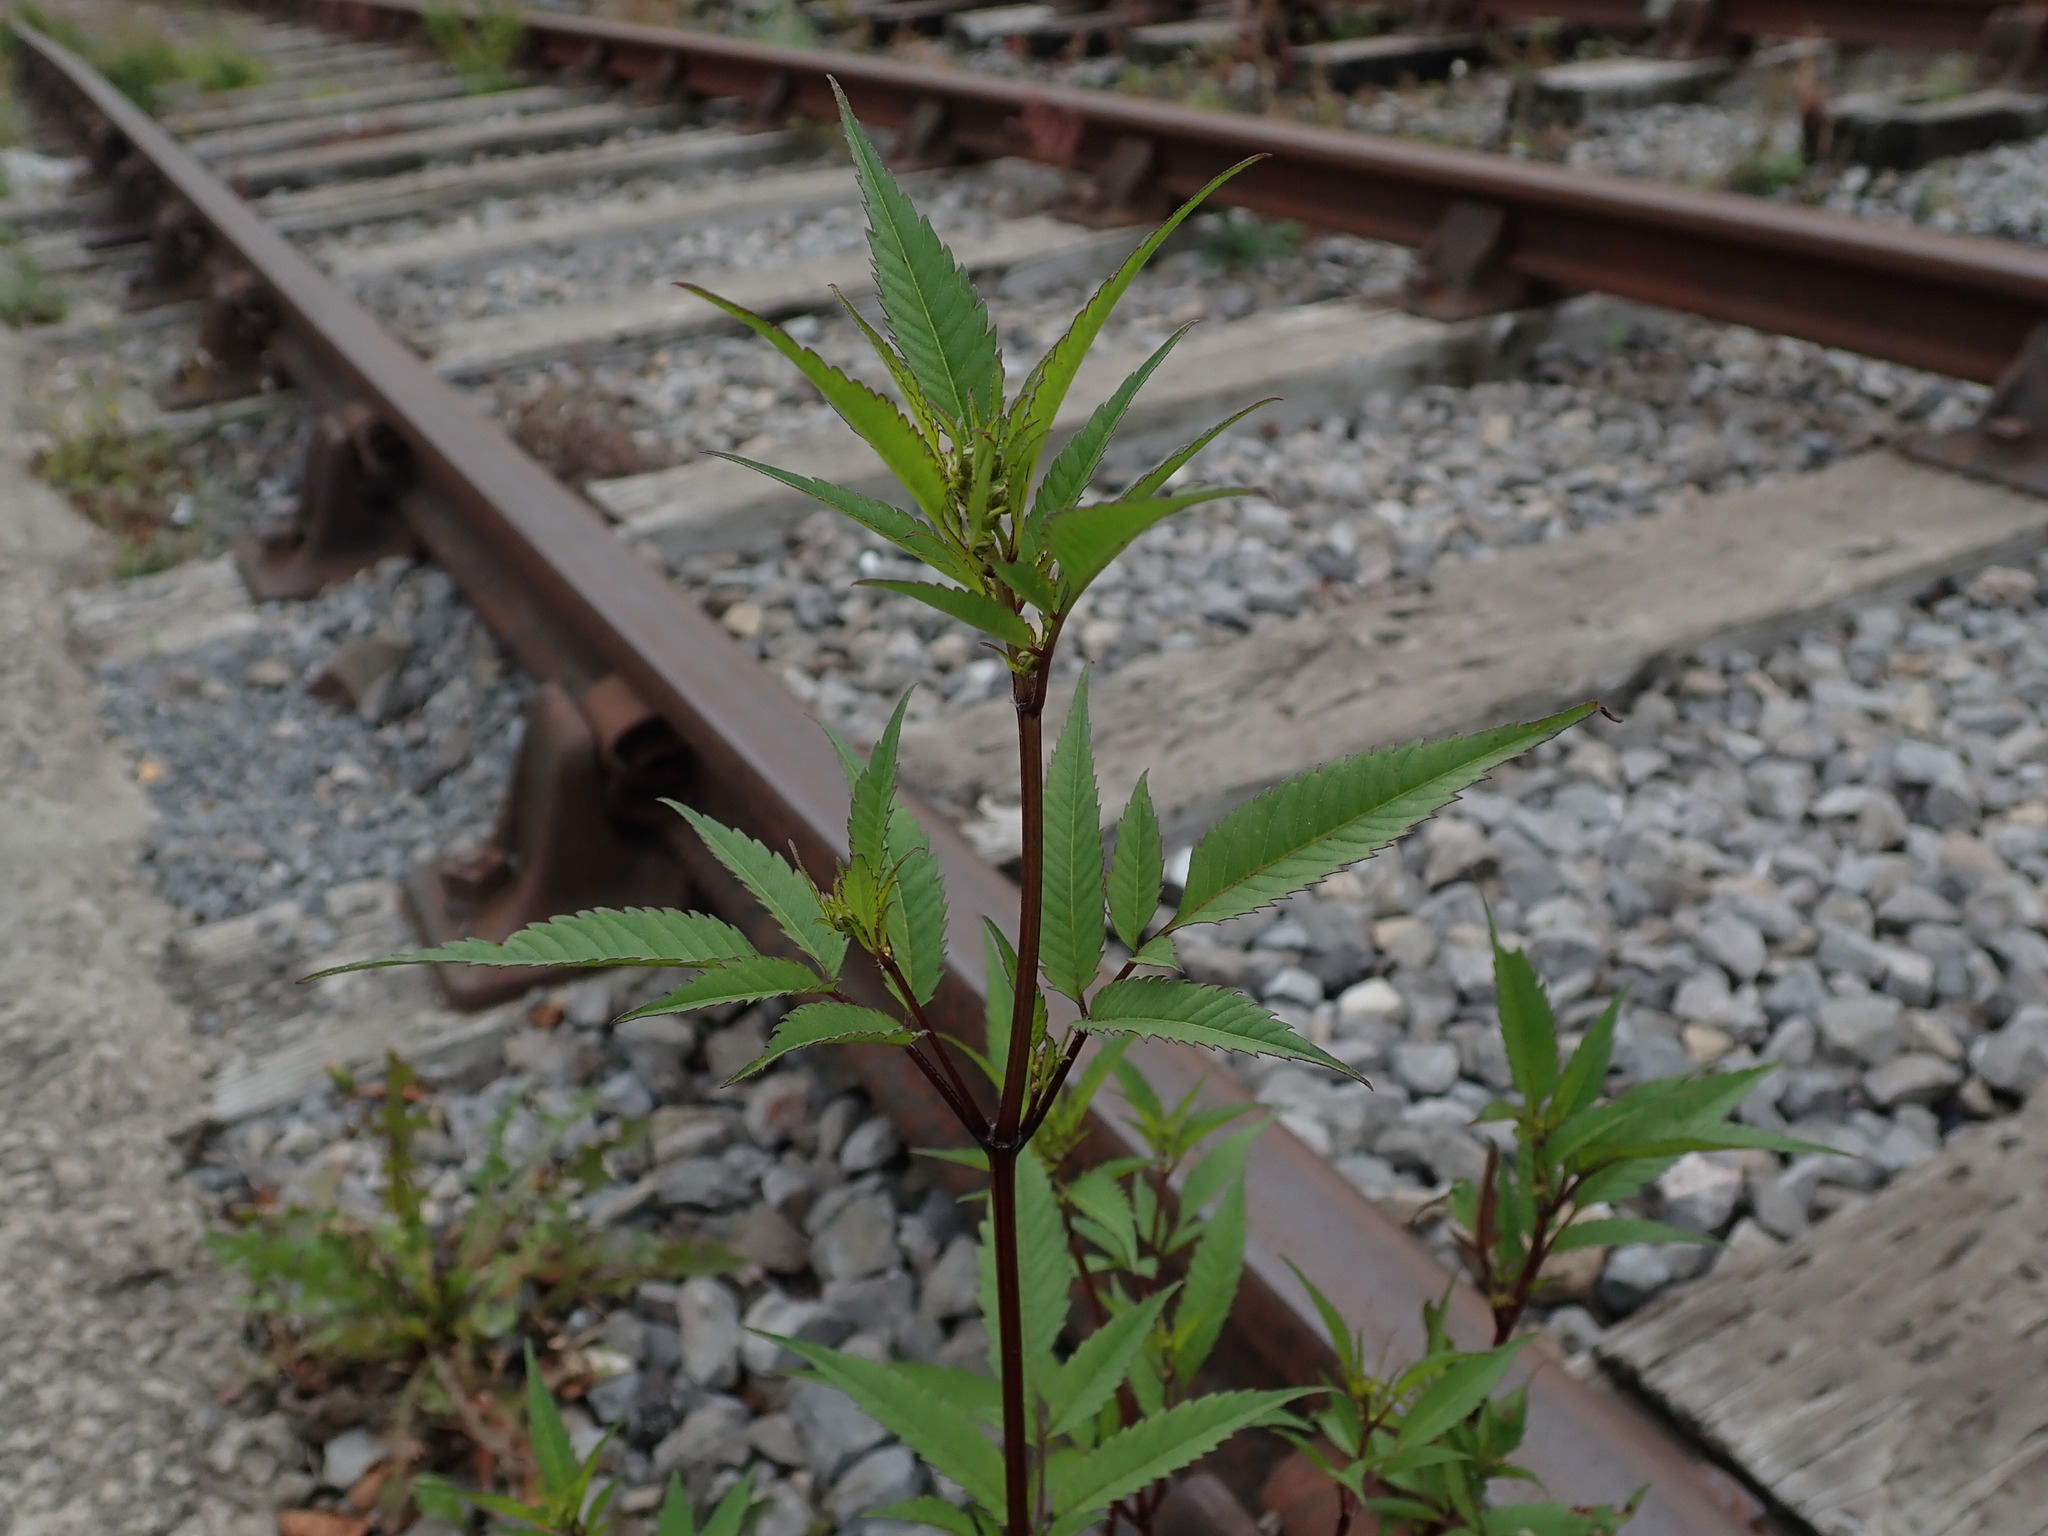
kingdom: Plantae
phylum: Tracheophyta
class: Magnoliopsida
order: Asterales
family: Asteraceae
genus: Bidens
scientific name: Bidens frondosa
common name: Beggarticks
